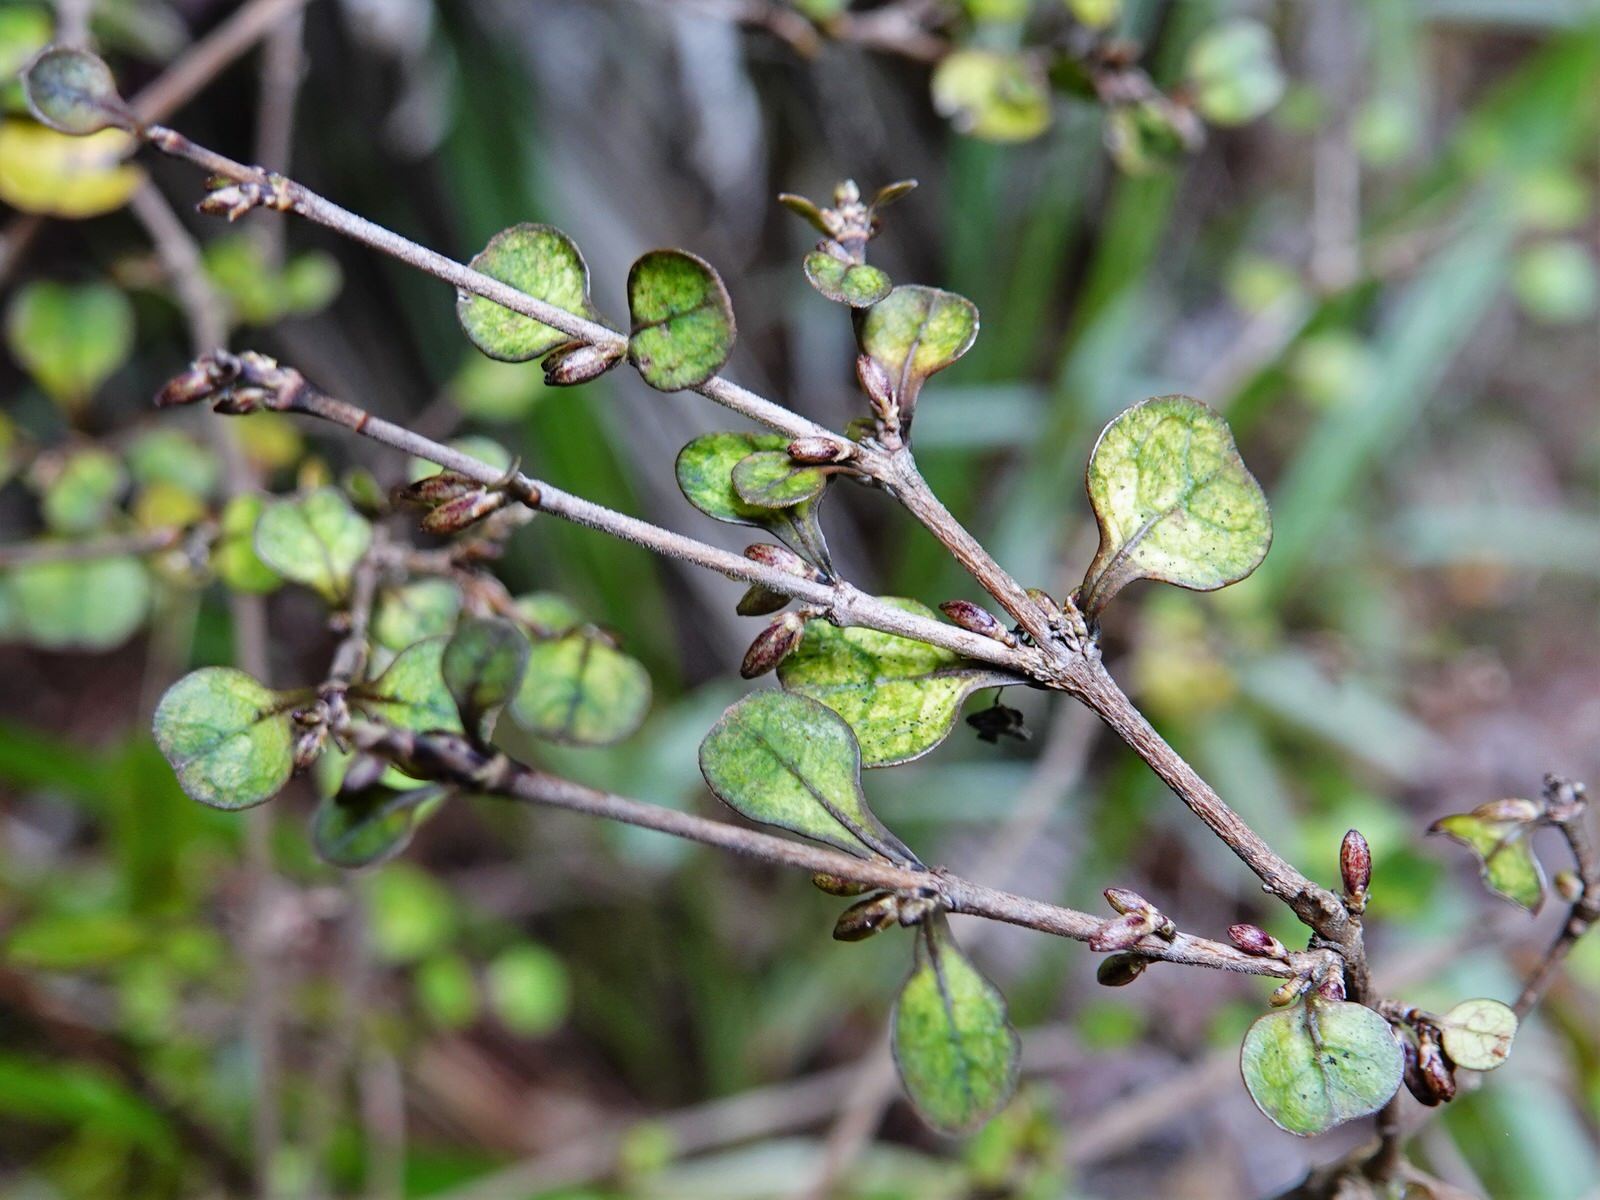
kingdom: Plantae
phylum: Tracheophyta
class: Magnoliopsida
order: Gentianales
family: Rubiaceae
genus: Coprosma
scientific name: Coprosma spathulata
